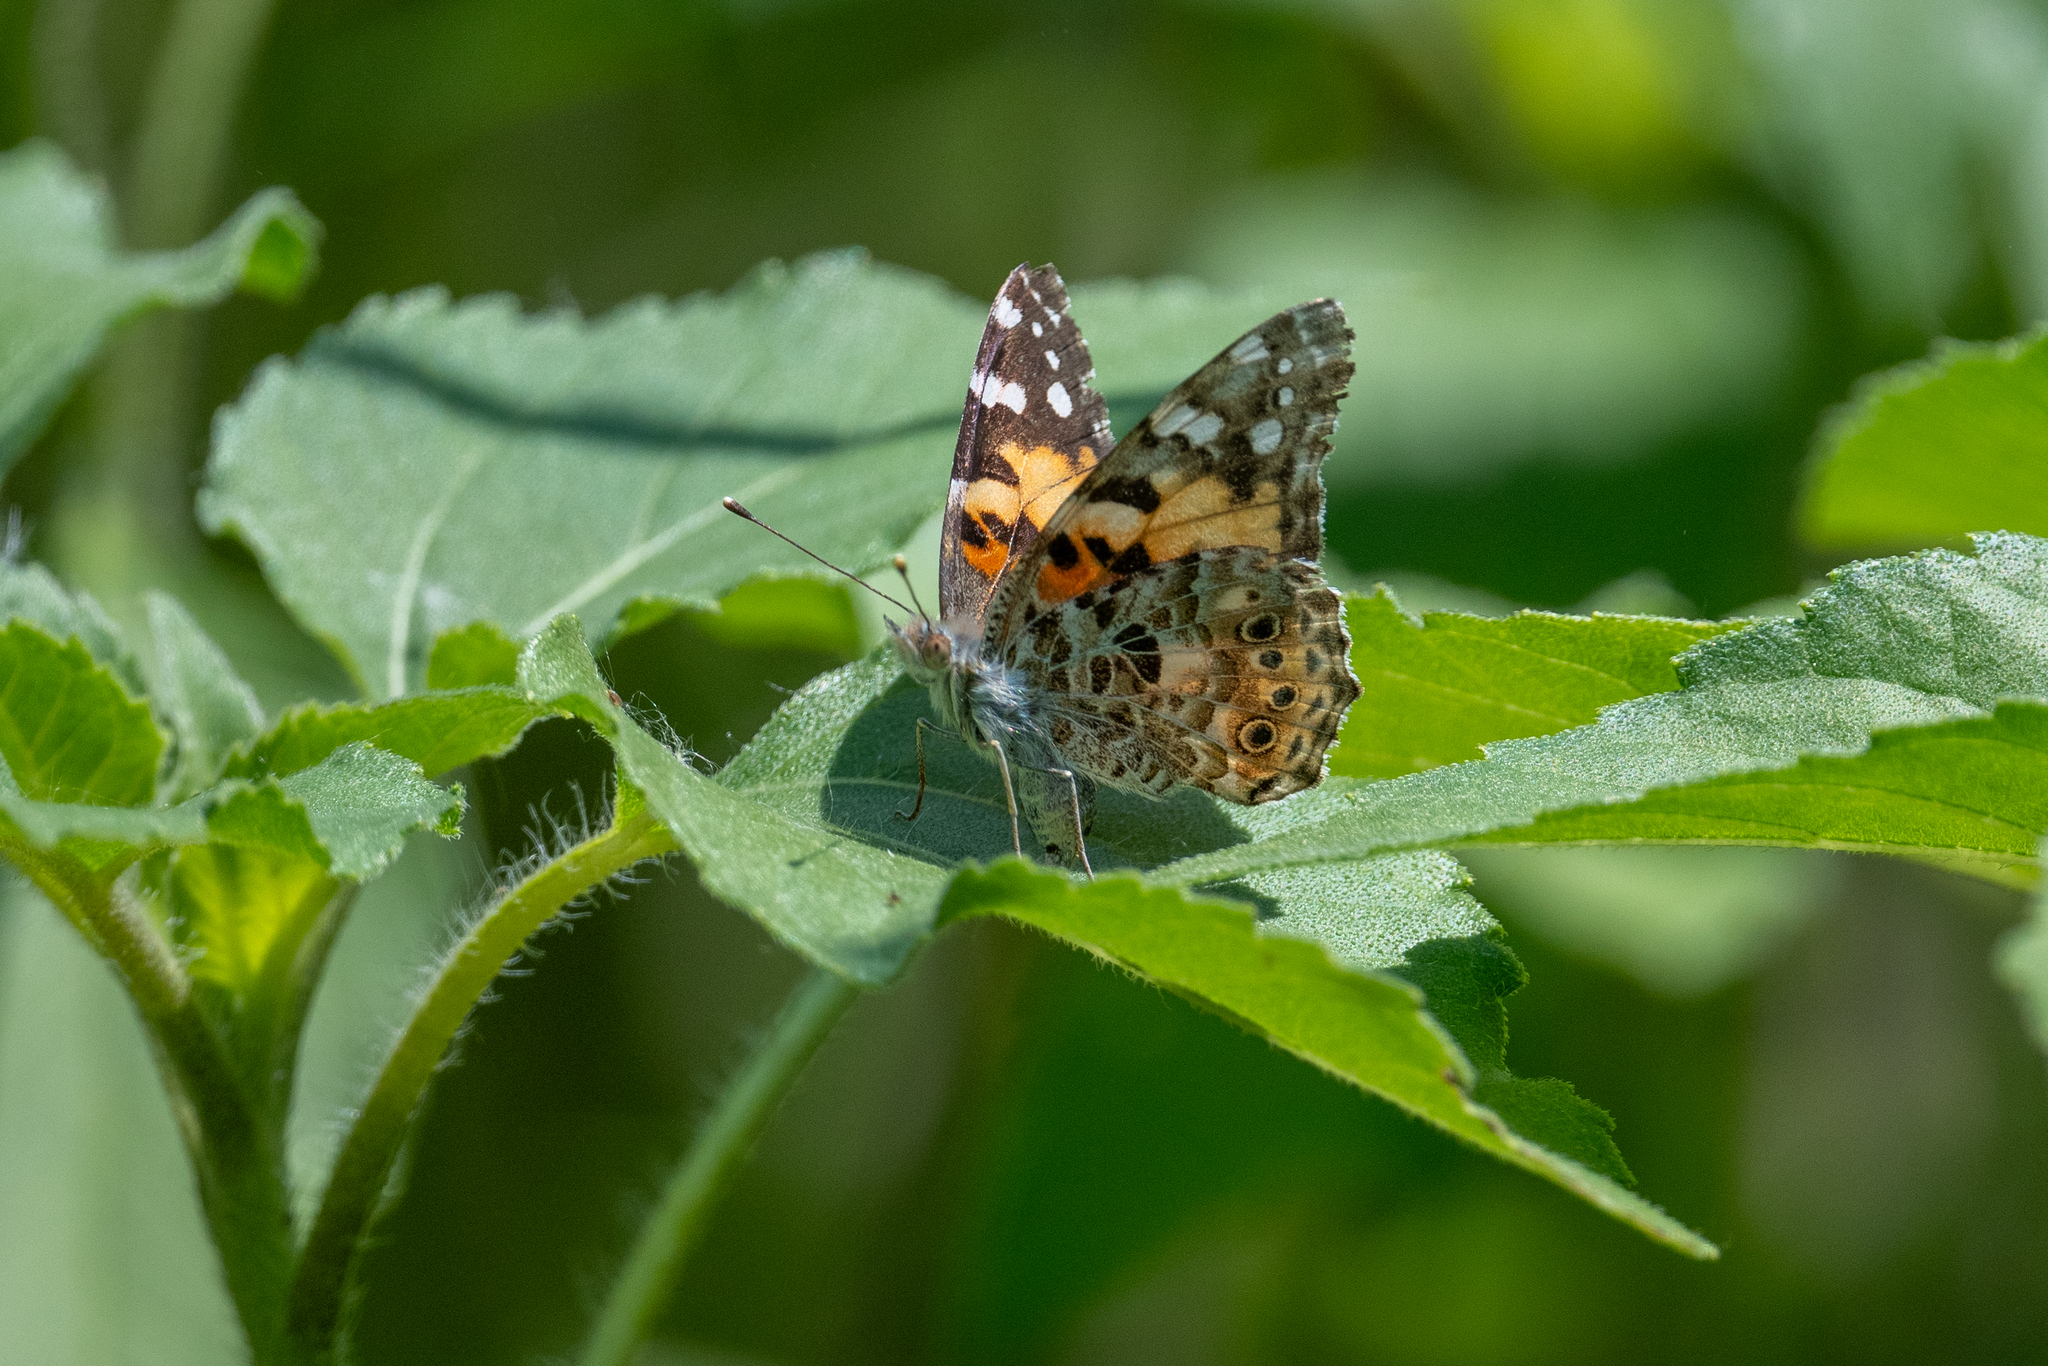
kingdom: Animalia
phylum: Arthropoda
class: Insecta
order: Lepidoptera
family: Nymphalidae
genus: Vanessa
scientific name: Vanessa cardui
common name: Painted lady
